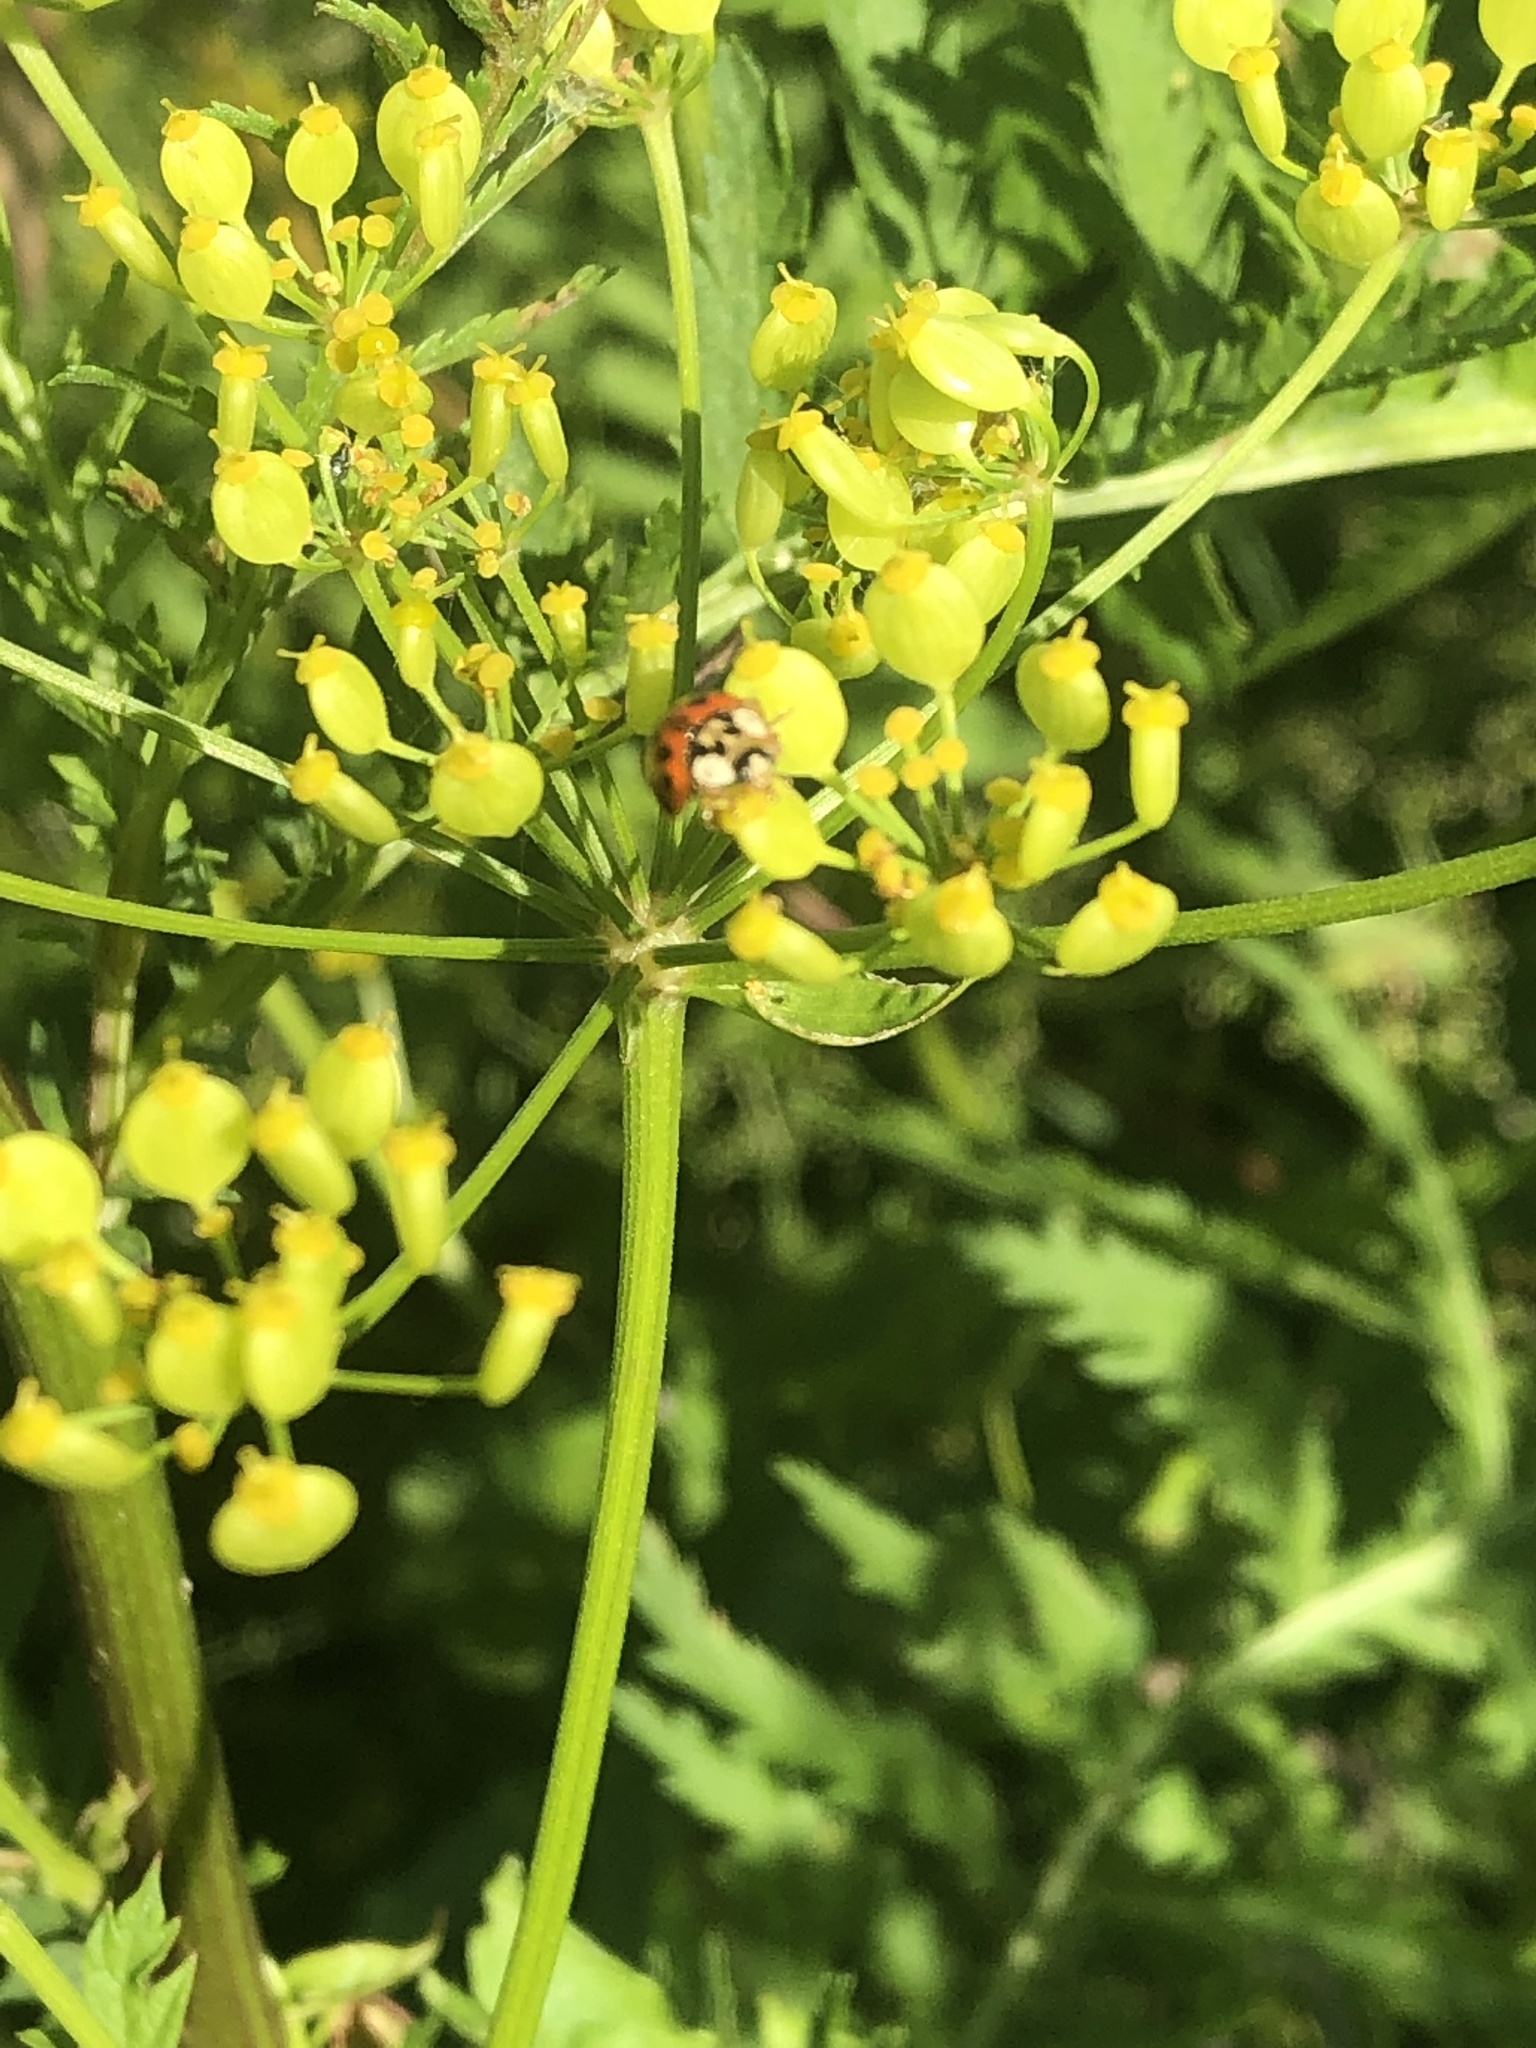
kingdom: Animalia
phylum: Arthropoda
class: Insecta
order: Coleoptera
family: Coccinellidae
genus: Harmonia
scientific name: Harmonia axyridis
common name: Harlequin ladybird
